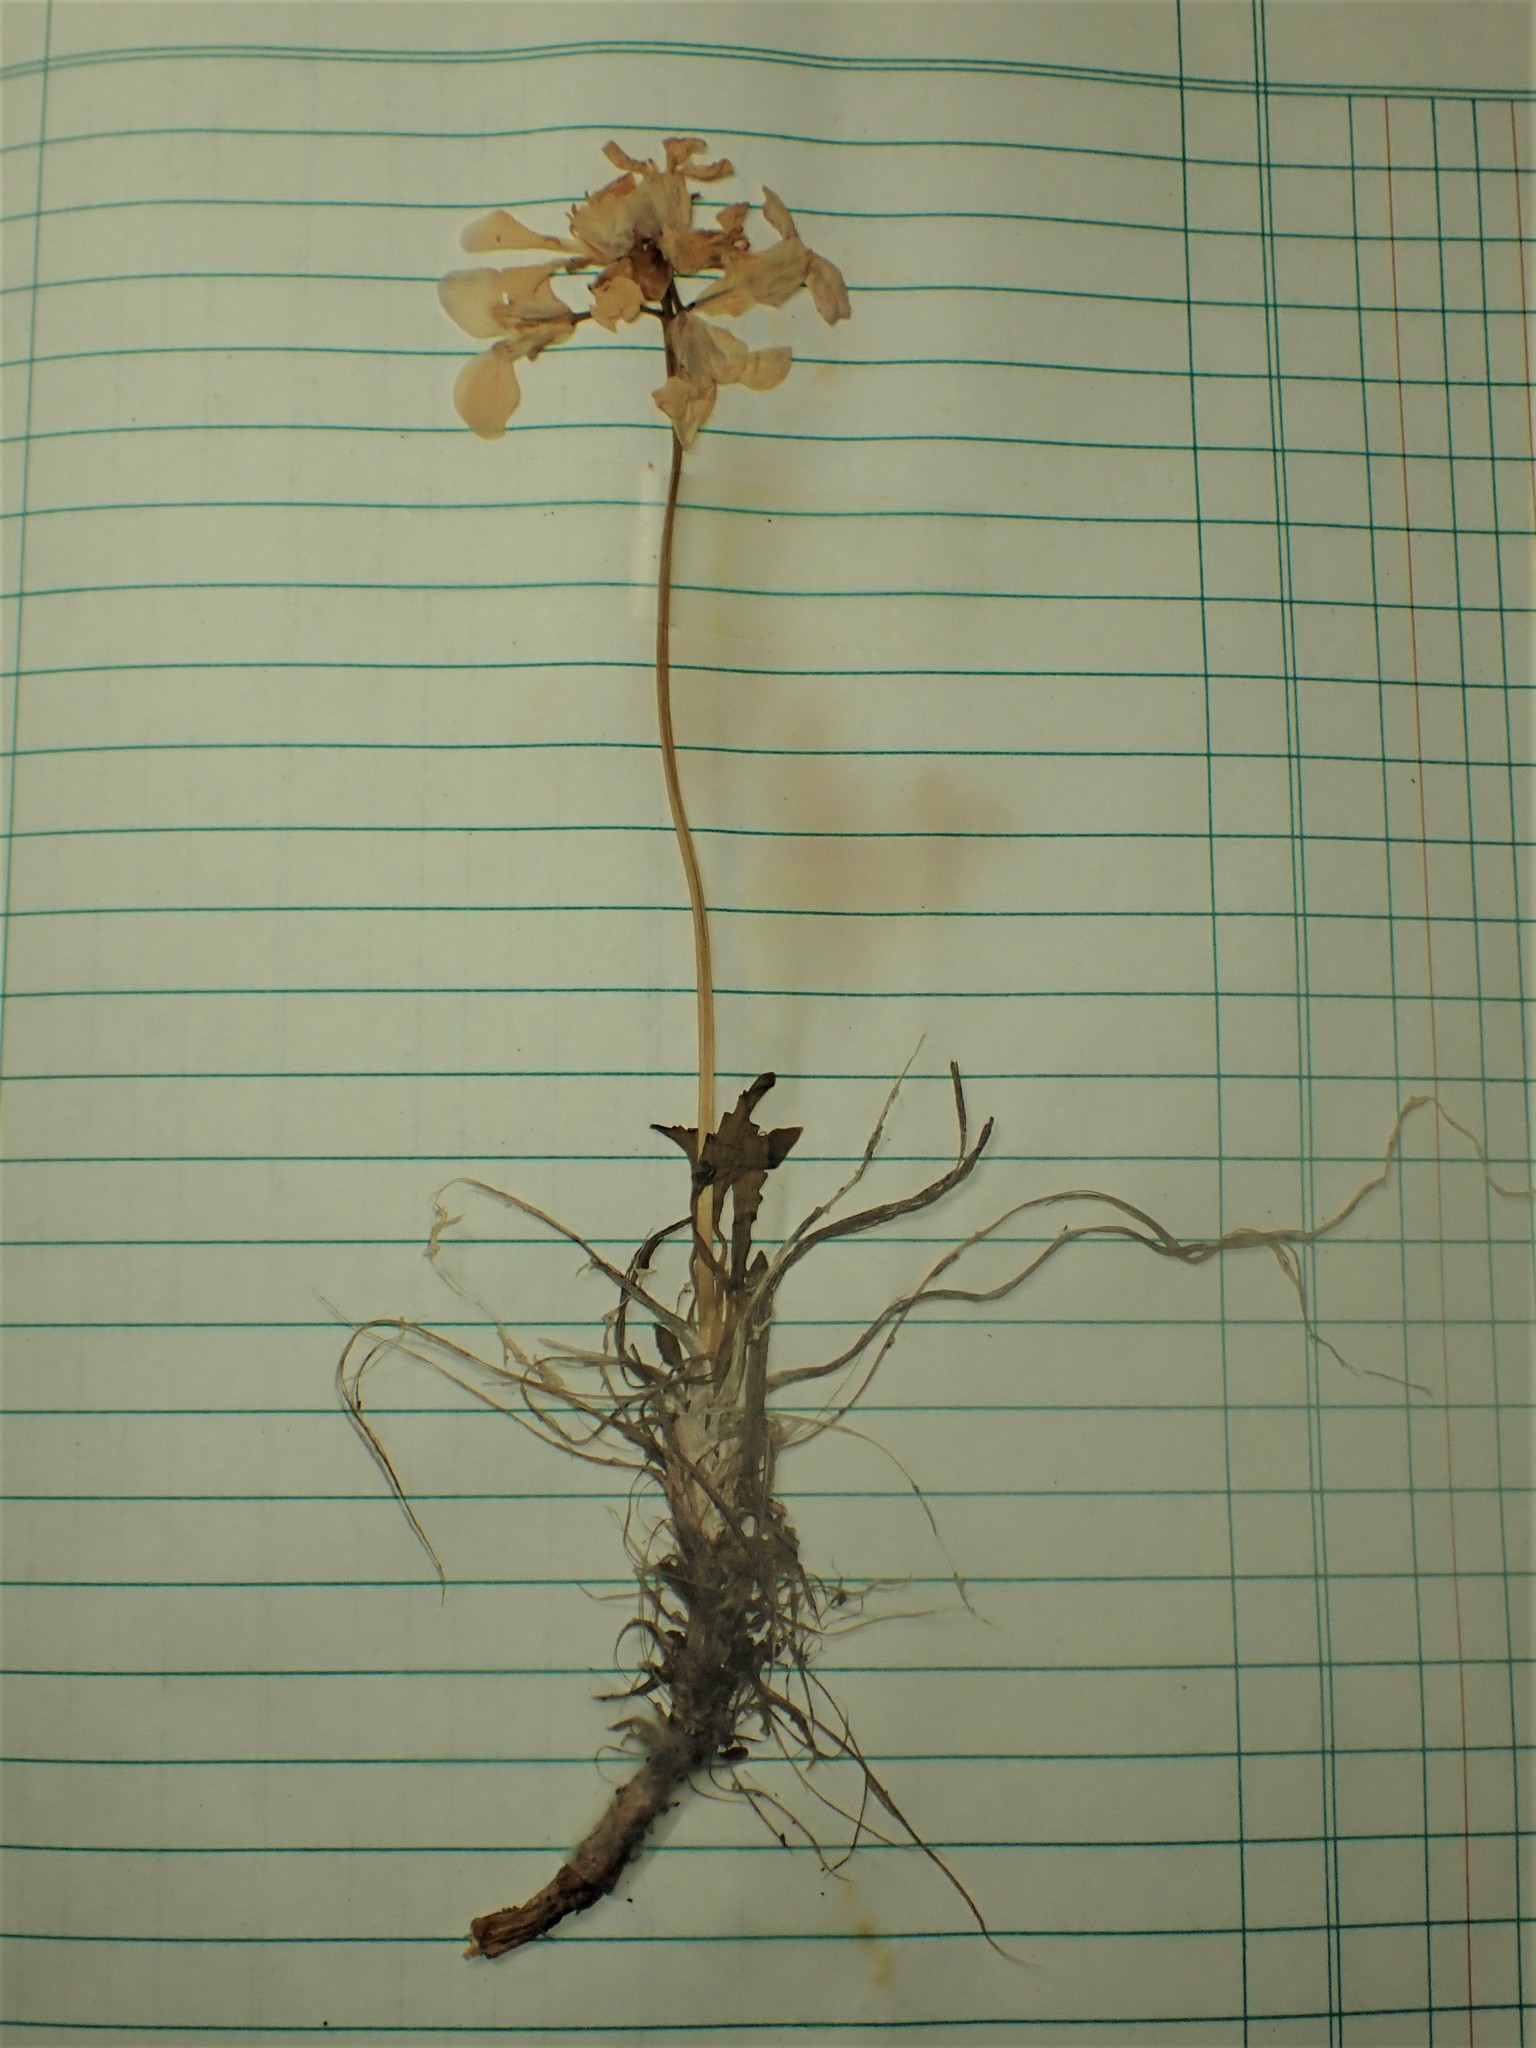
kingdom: Plantae
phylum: Tracheophyta
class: Magnoliopsida
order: Brassicales
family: Brassicaceae
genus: Parrya
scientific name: Parrya nudicaulis
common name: Naked-stemmed false wallflower
